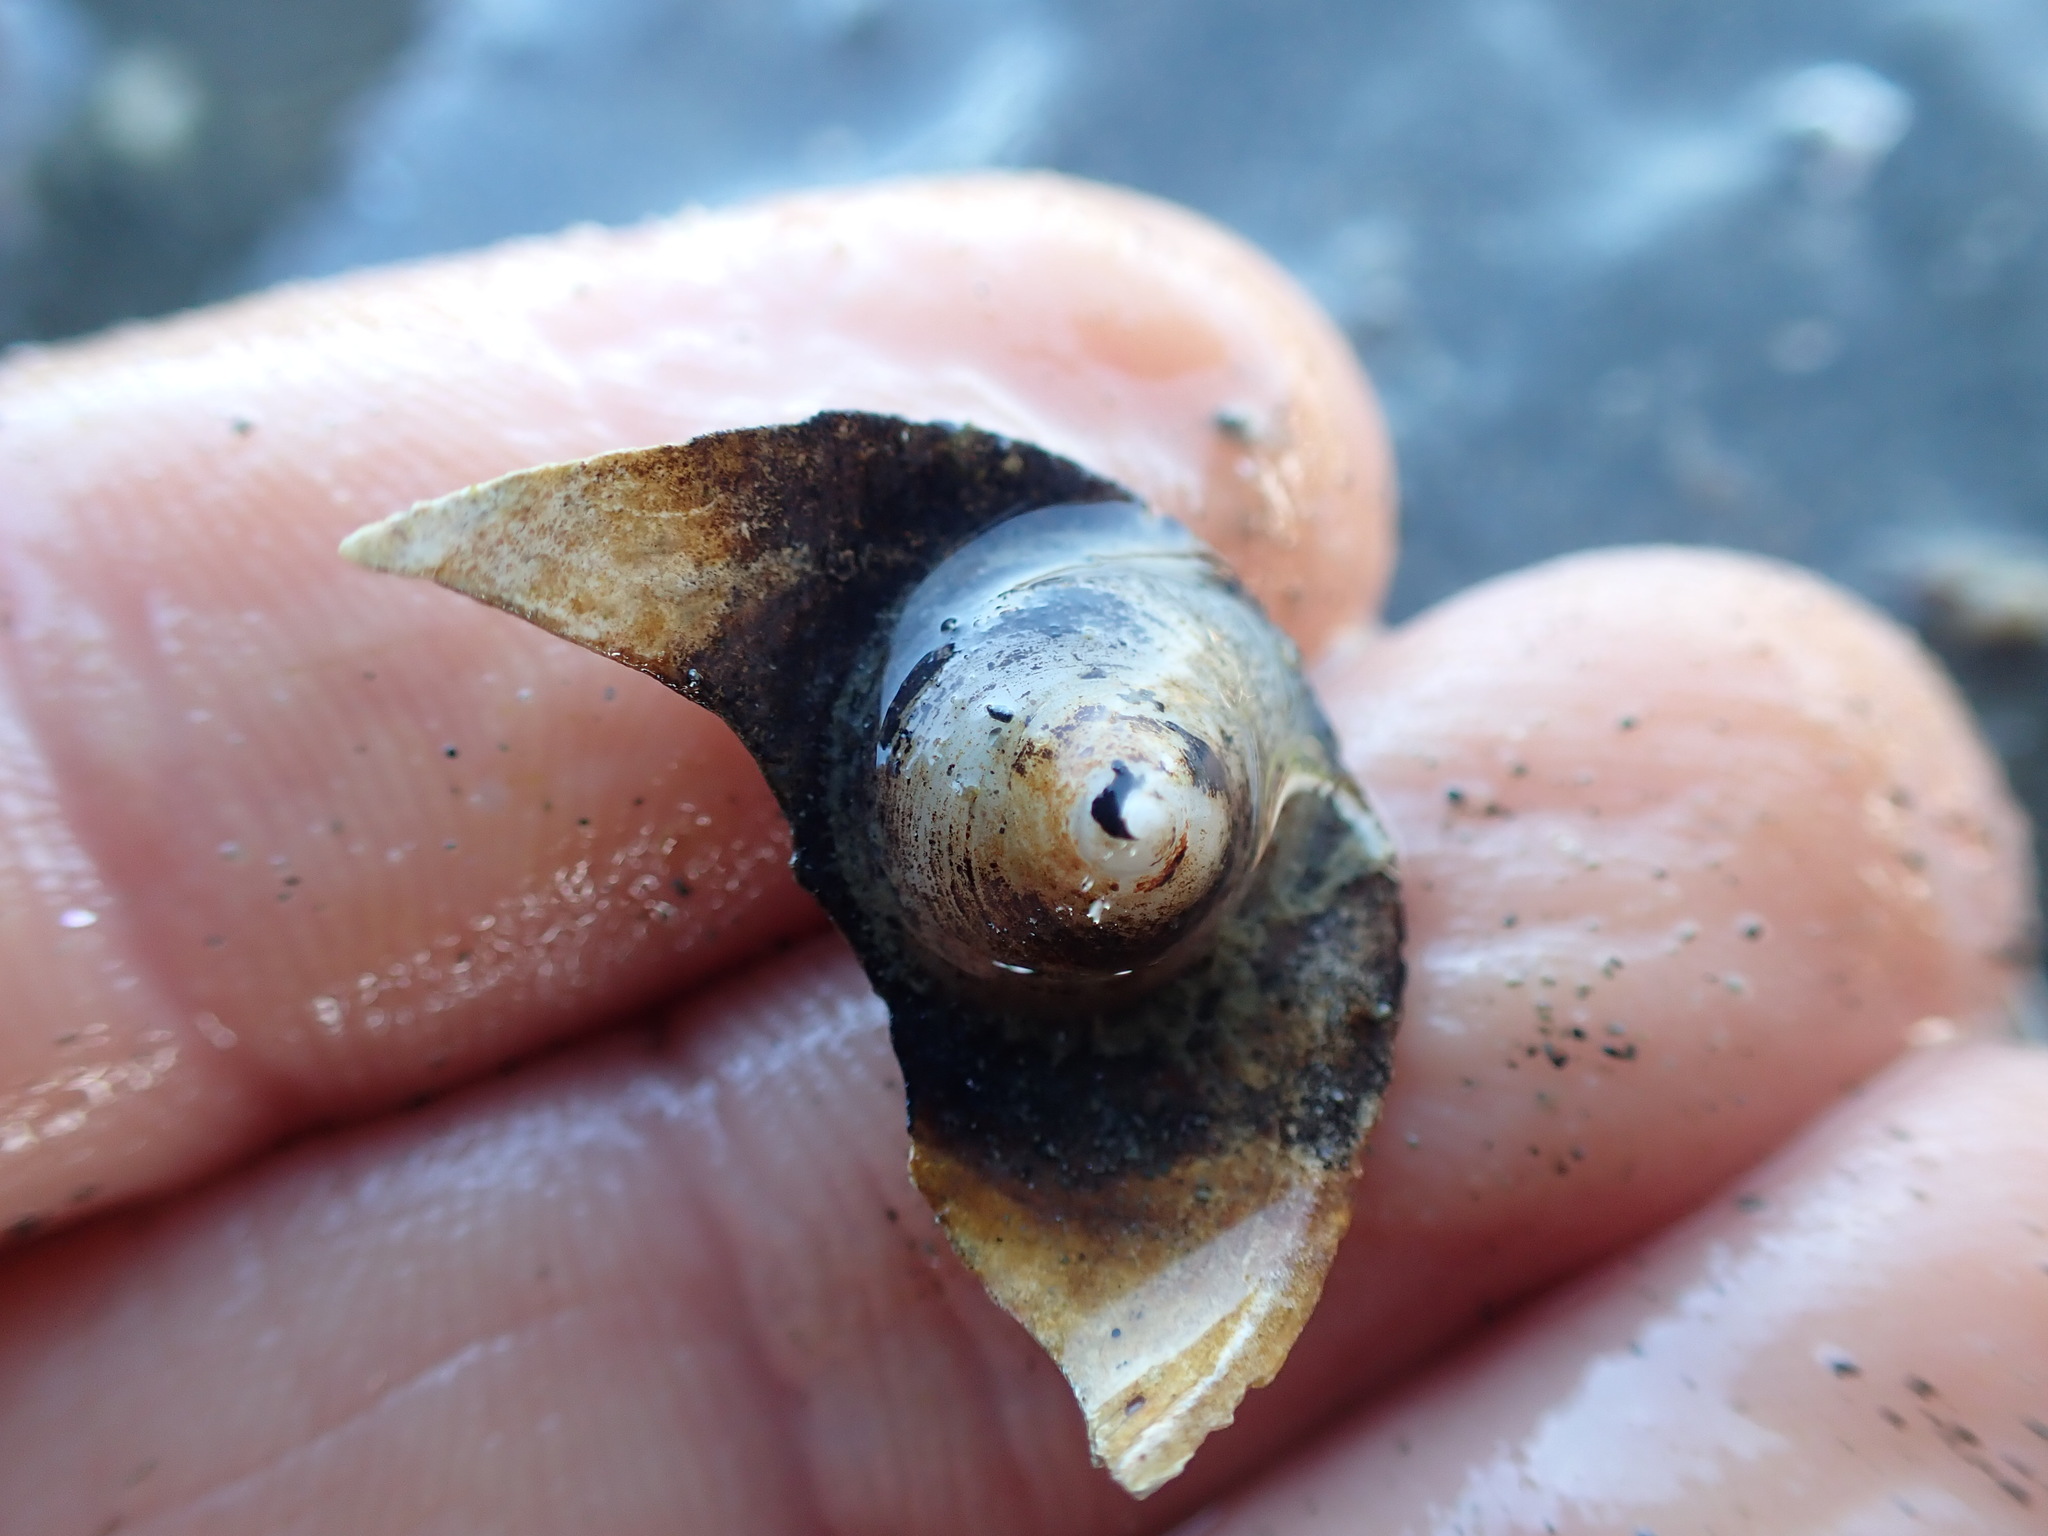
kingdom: Animalia
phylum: Mollusca
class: Gastropoda
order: Littorinimorpha
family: Calyptraeidae
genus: Sigapatella
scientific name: Sigapatella tenuis
